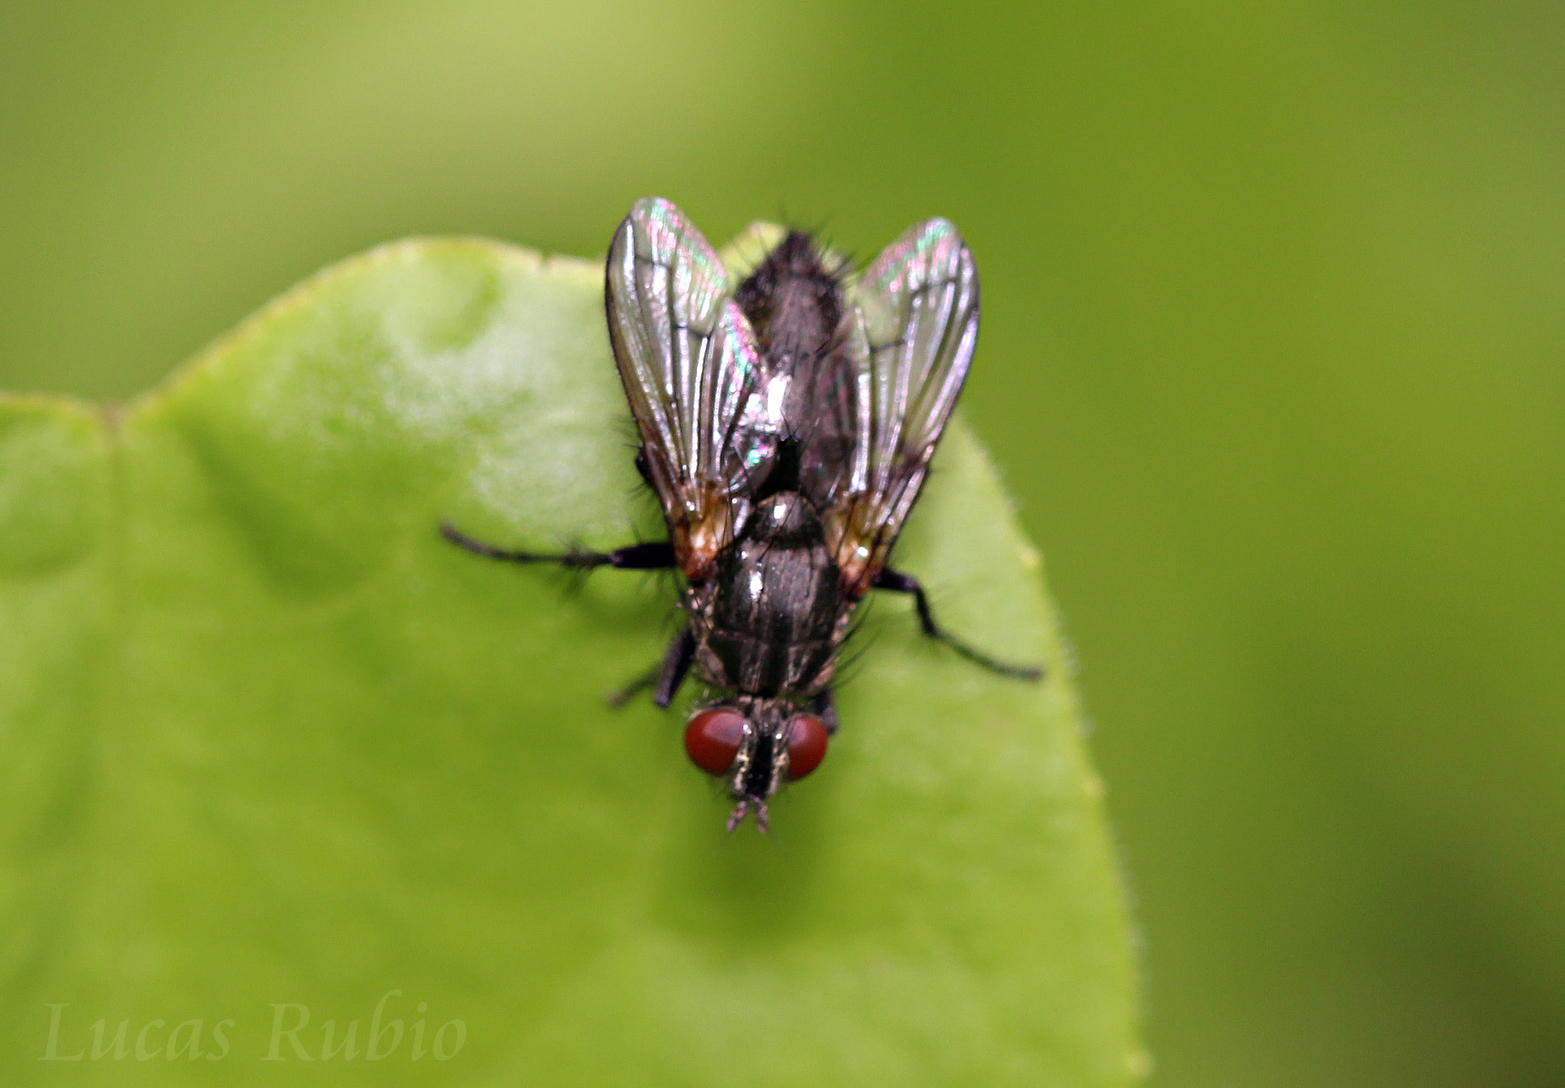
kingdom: Animalia
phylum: Arthropoda
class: Insecta
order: Diptera
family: Calliphoridae
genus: Stevenia
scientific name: Stevenia deceptoria
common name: Grizzled woodlouse-fly
